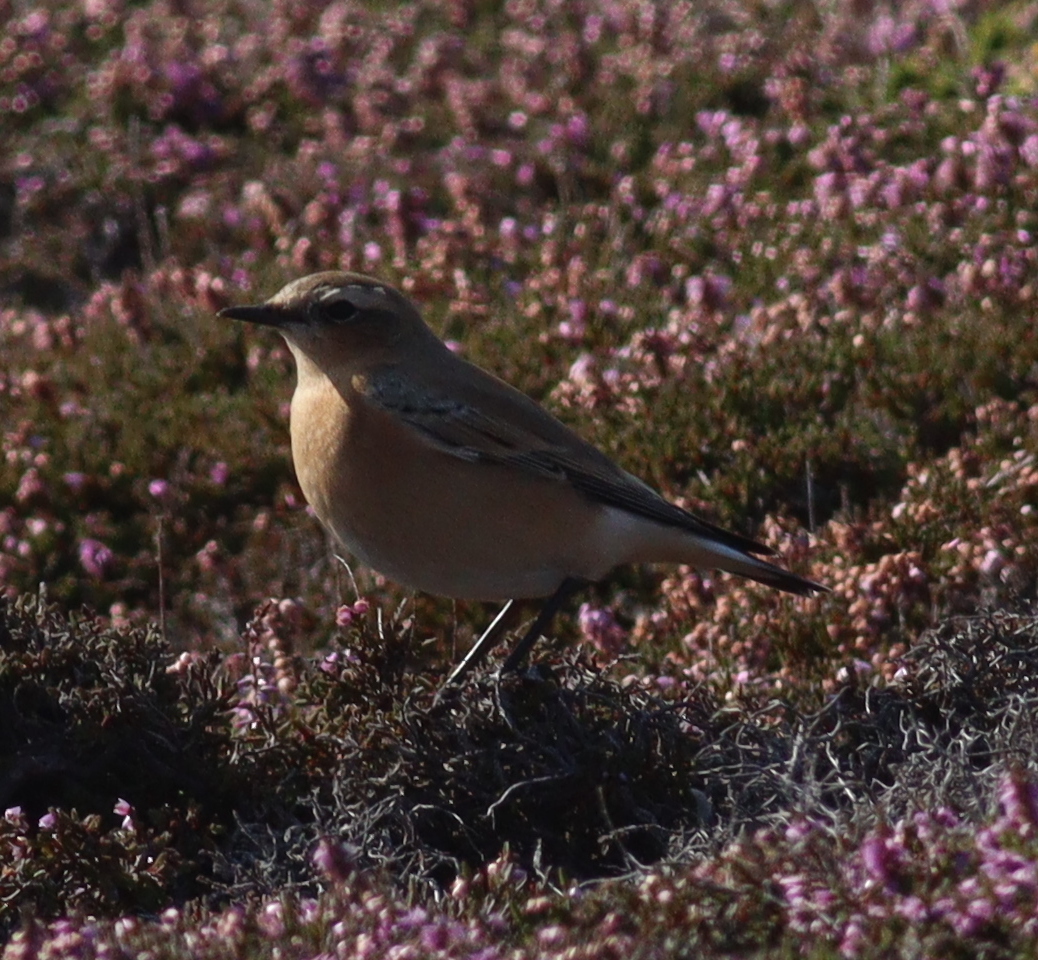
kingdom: Animalia
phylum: Chordata
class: Aves
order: Passeriformes
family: Muscicapidae
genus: Oenanthe
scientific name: Oenanthe oenanthe
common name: Northern wheatear
